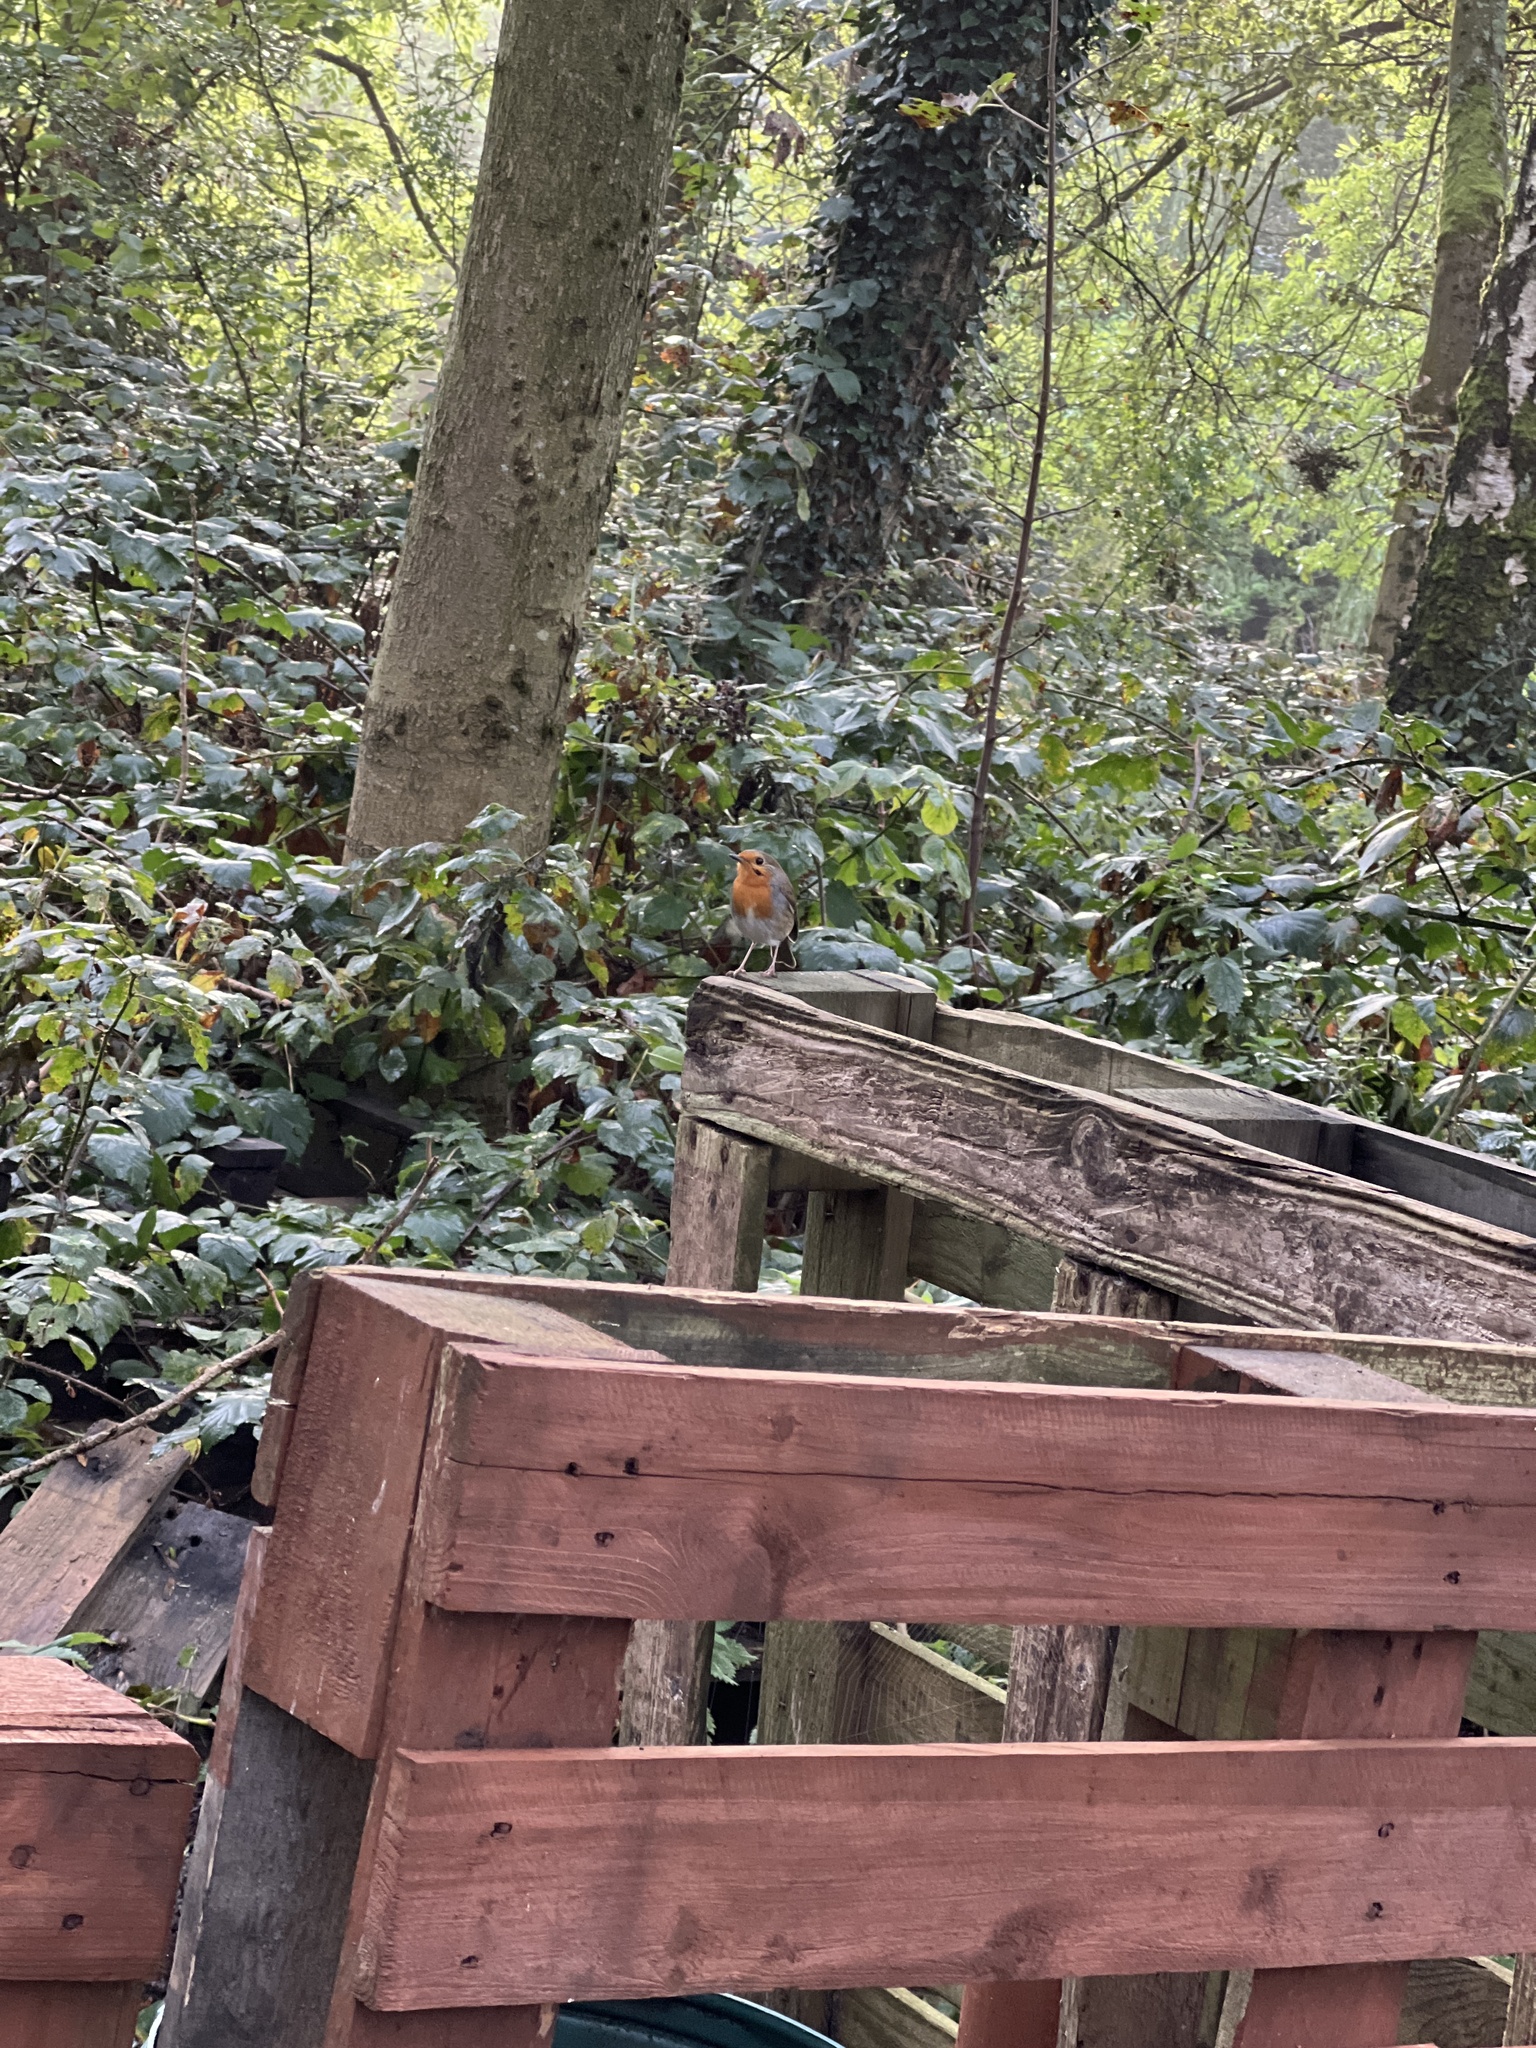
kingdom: Animalia
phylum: Chordata
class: Aves
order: Passeriformes
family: Muscicapidae
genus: Erithacus
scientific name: Erithacus rubecula
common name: European robin
